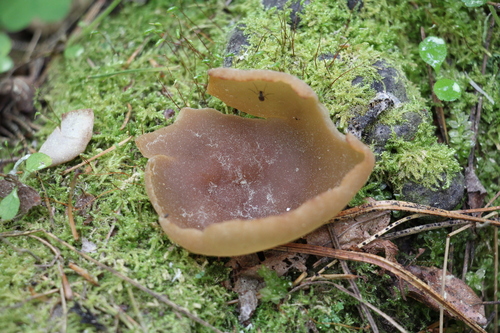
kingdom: Fungi
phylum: Ascomycota
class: Pezizomycetes
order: Pezizales
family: Pezizaceae
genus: Peziza
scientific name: Peziza varia
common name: Layered cup
